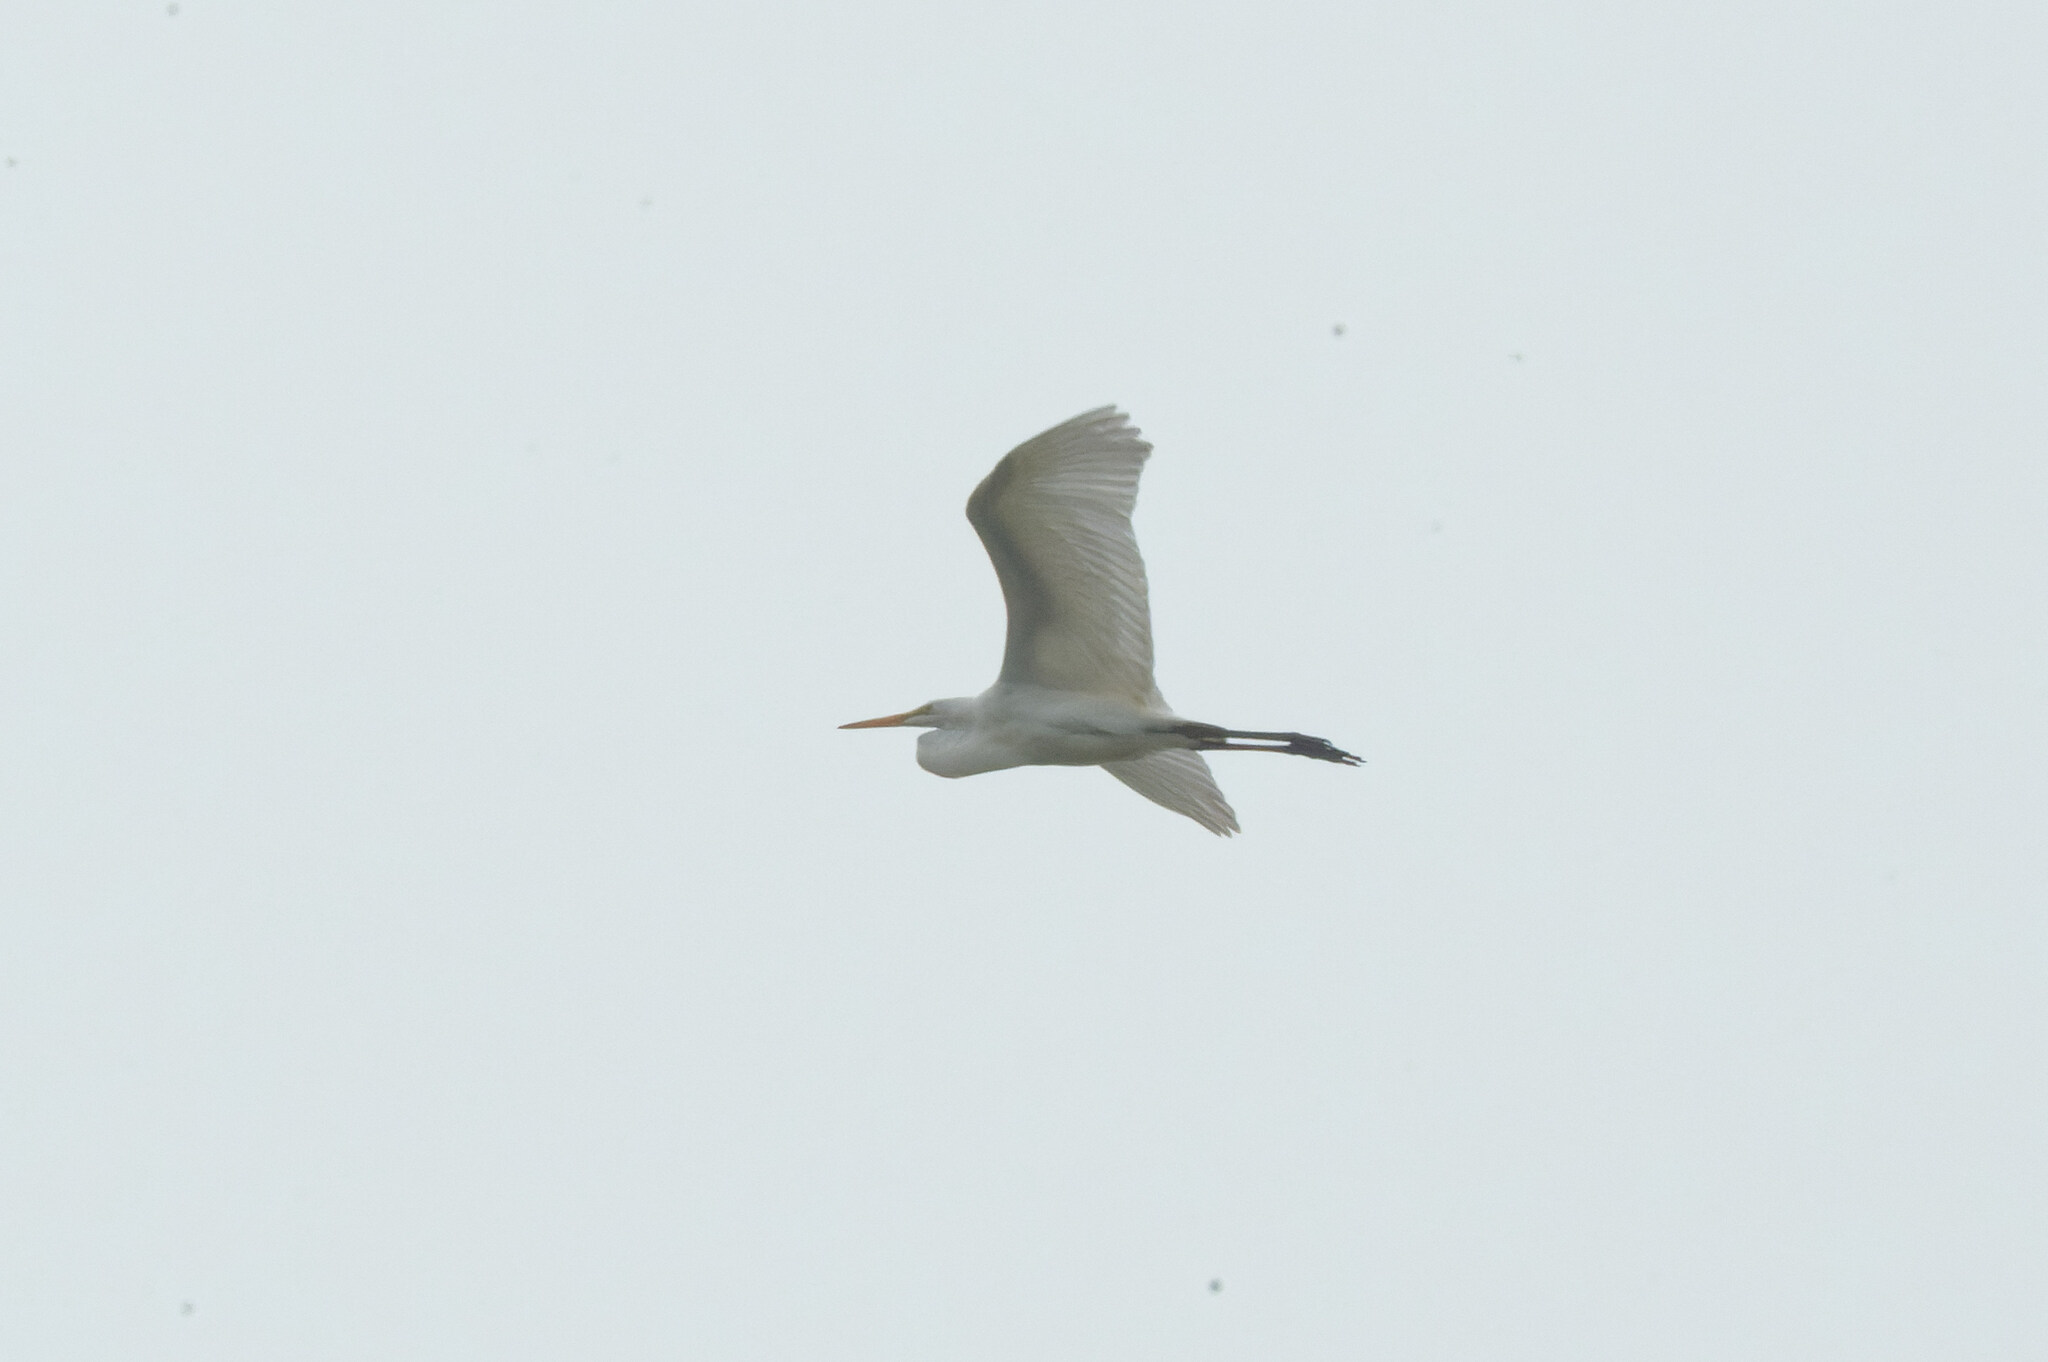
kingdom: Animalia
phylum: Chordata
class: Aves
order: Pelecaniformes
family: Ardeidae
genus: Ardea
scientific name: Ardea alba
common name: Great egret
